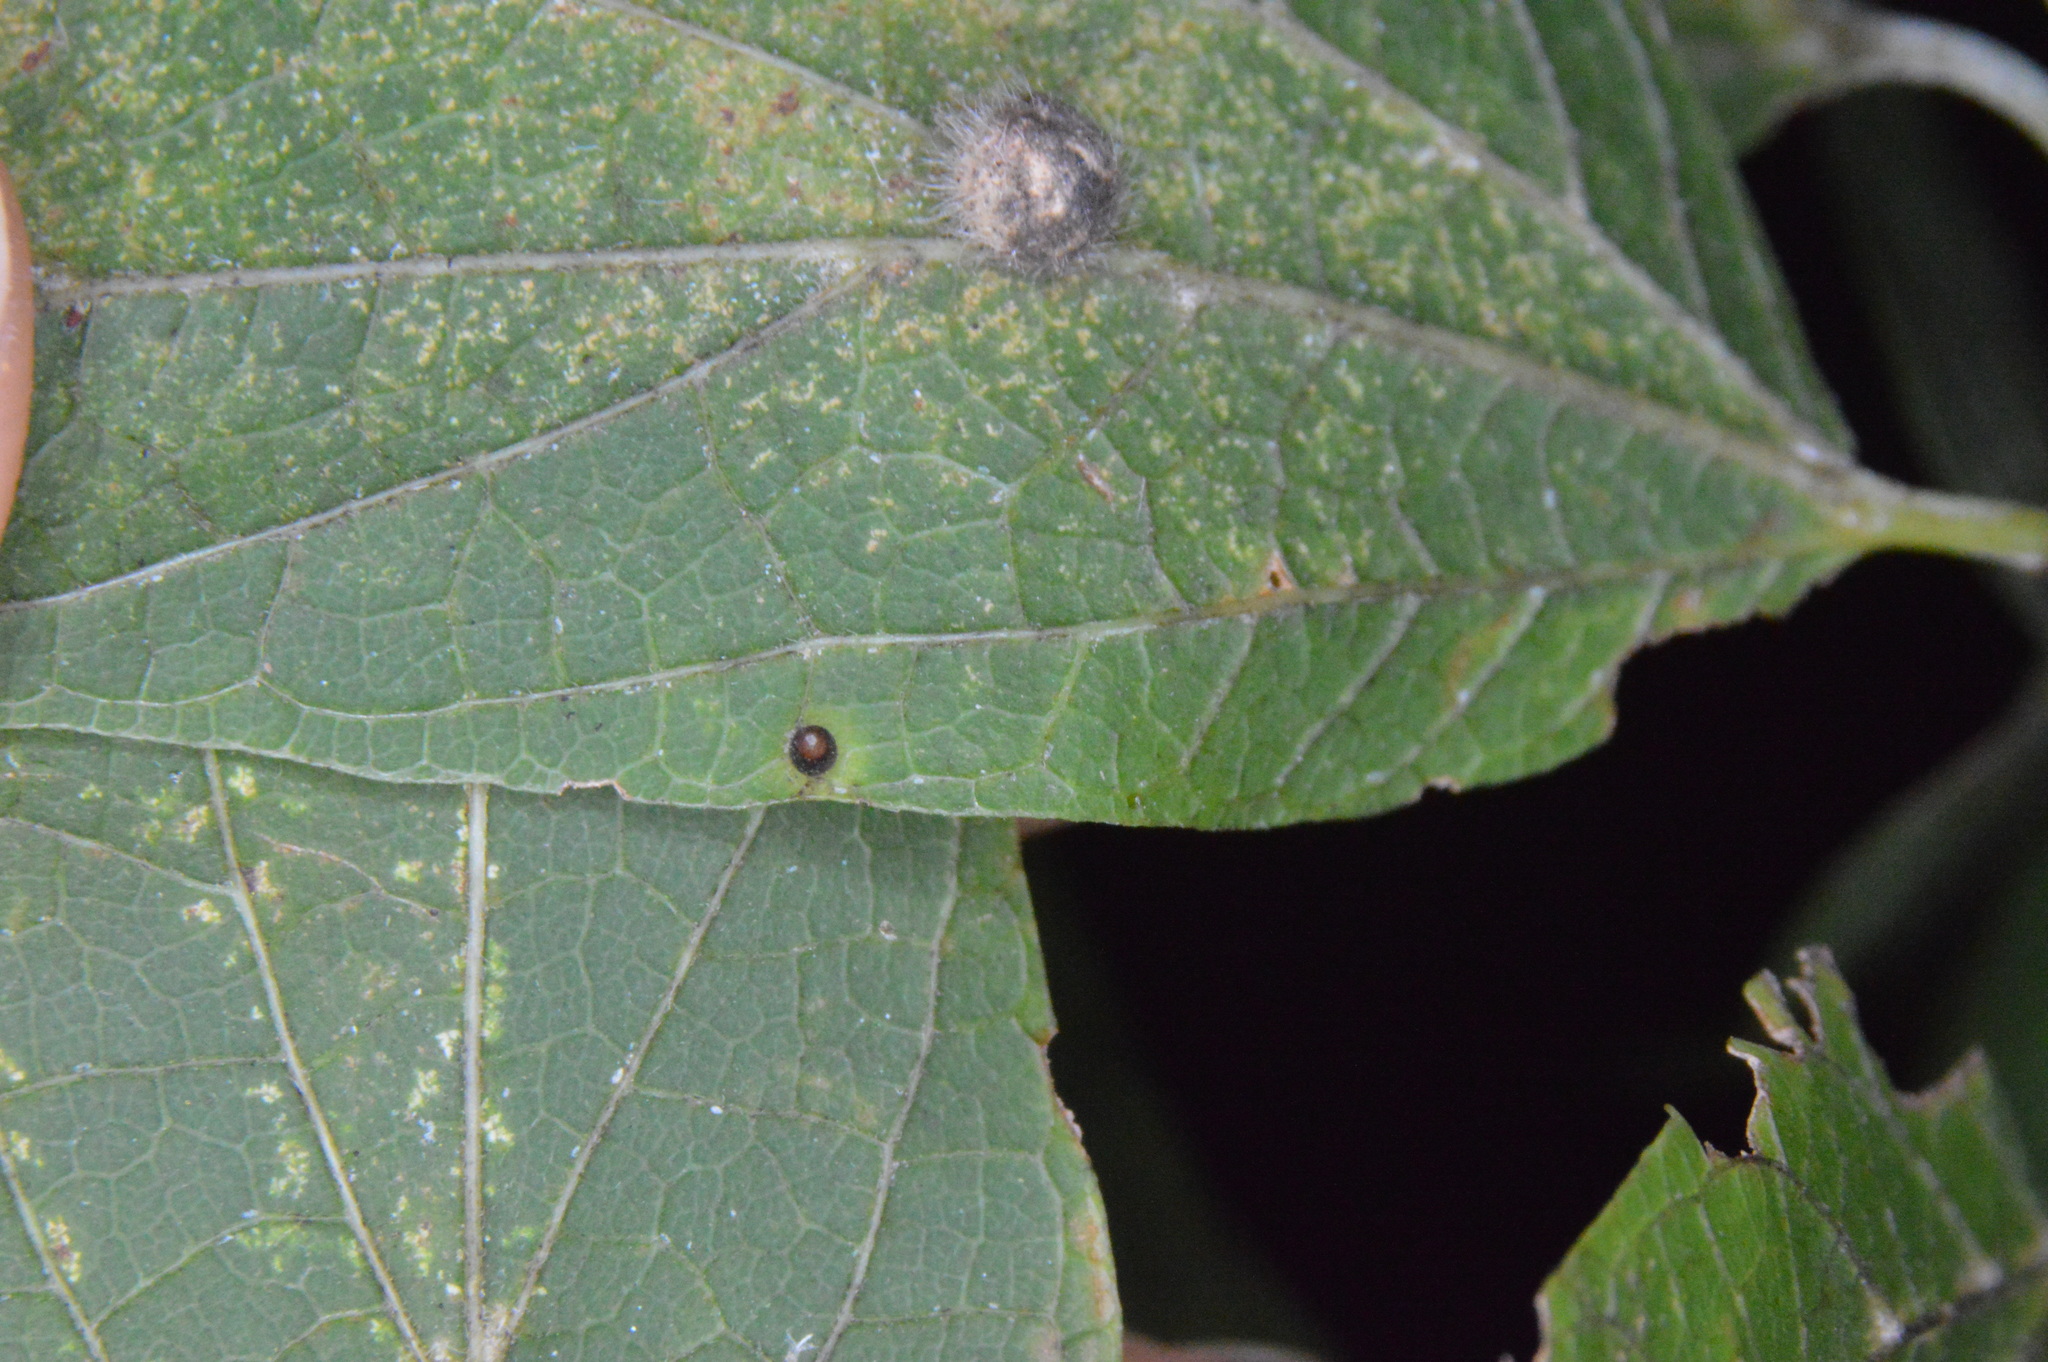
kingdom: Animalia
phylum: Arthropoda
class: Insecta
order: Diptera
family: Cecidomyiidae
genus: Celticecis
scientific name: Celticecis cupiformis
